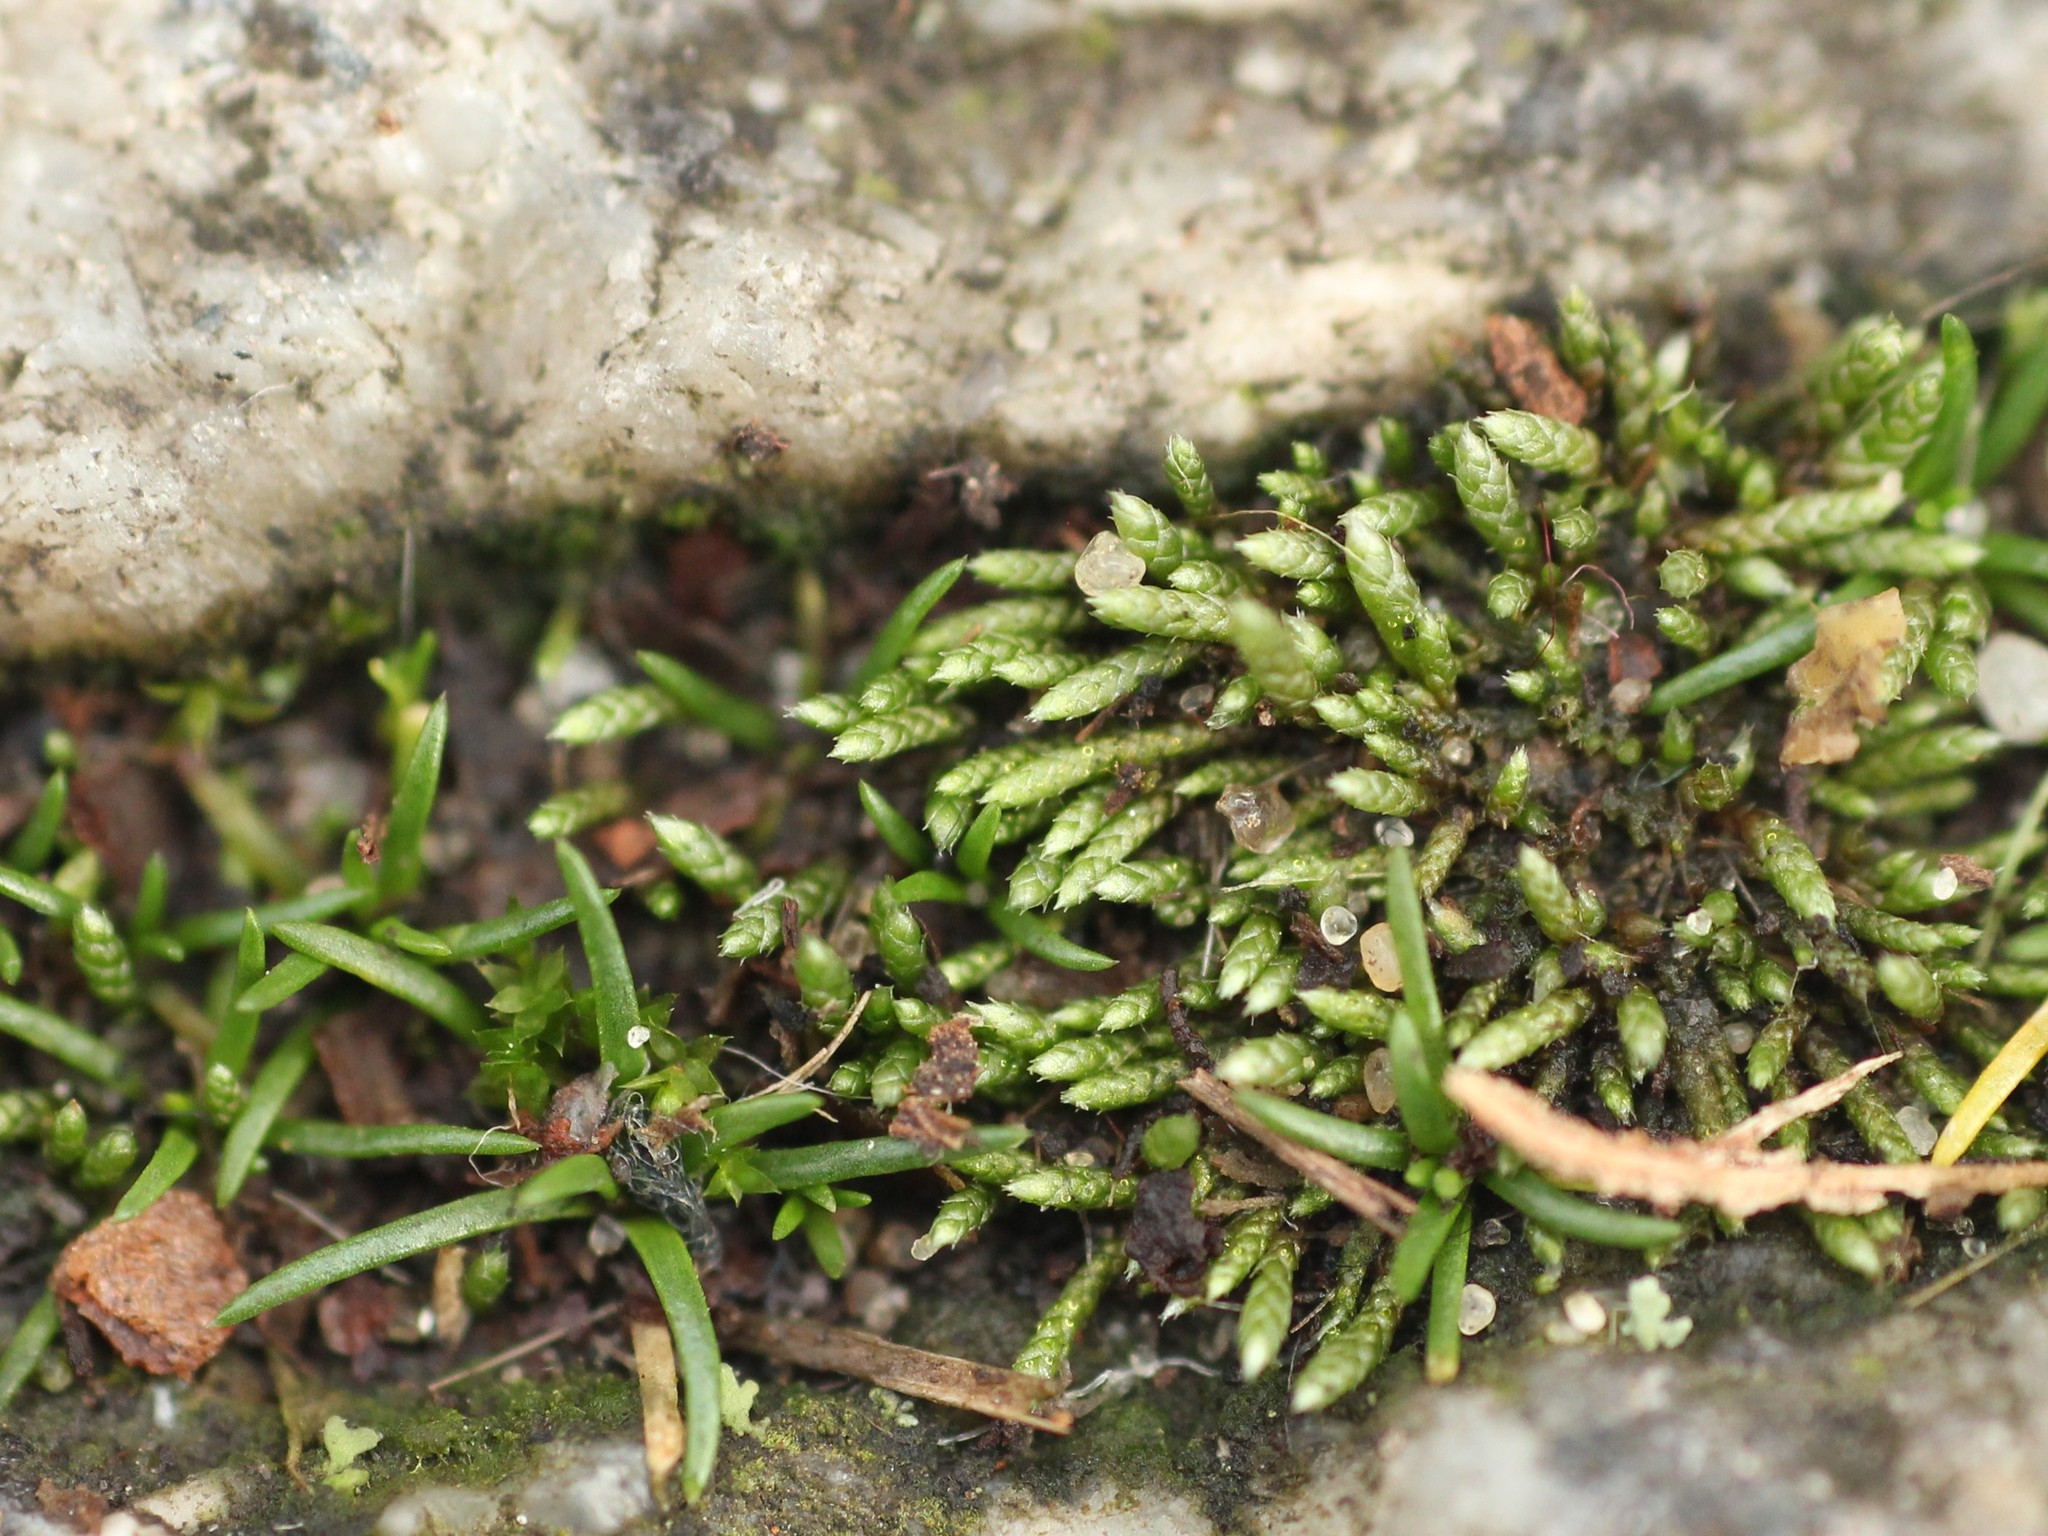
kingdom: Plantae
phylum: Bryophyta
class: Bryopsida
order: Bryales
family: Bryaceae
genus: Bryum
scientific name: Bryum argenteum
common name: Silver-moss
